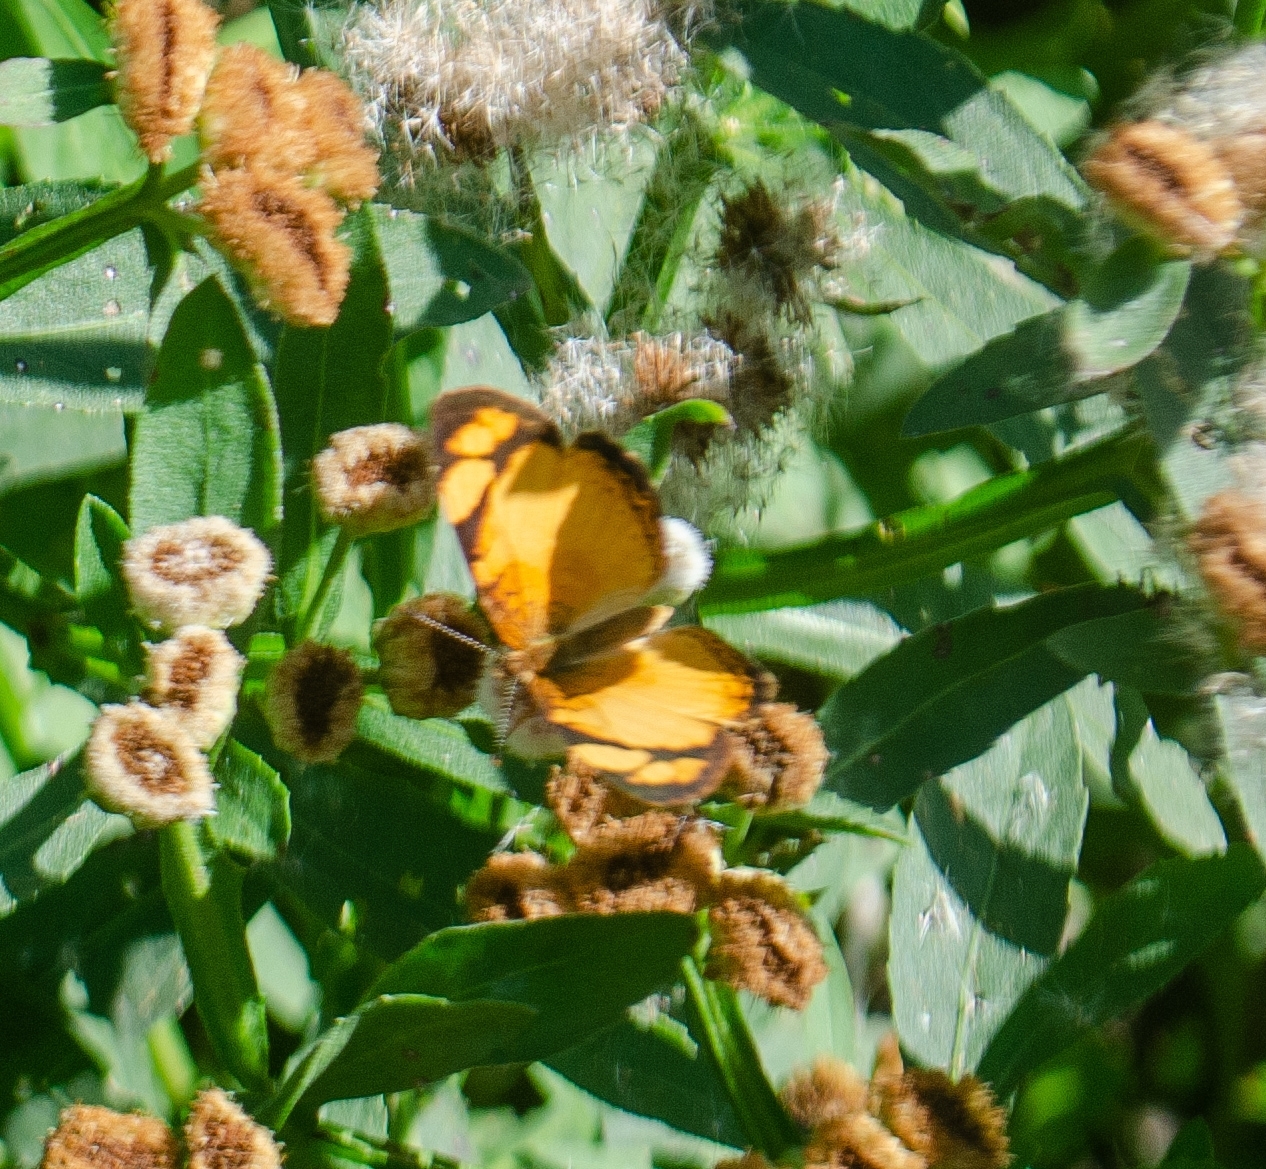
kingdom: Animalia
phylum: Arthropoda
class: Insecta
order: Lepidoptera
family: Nymphalidae
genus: Tegosa
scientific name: Tegosa claudina
